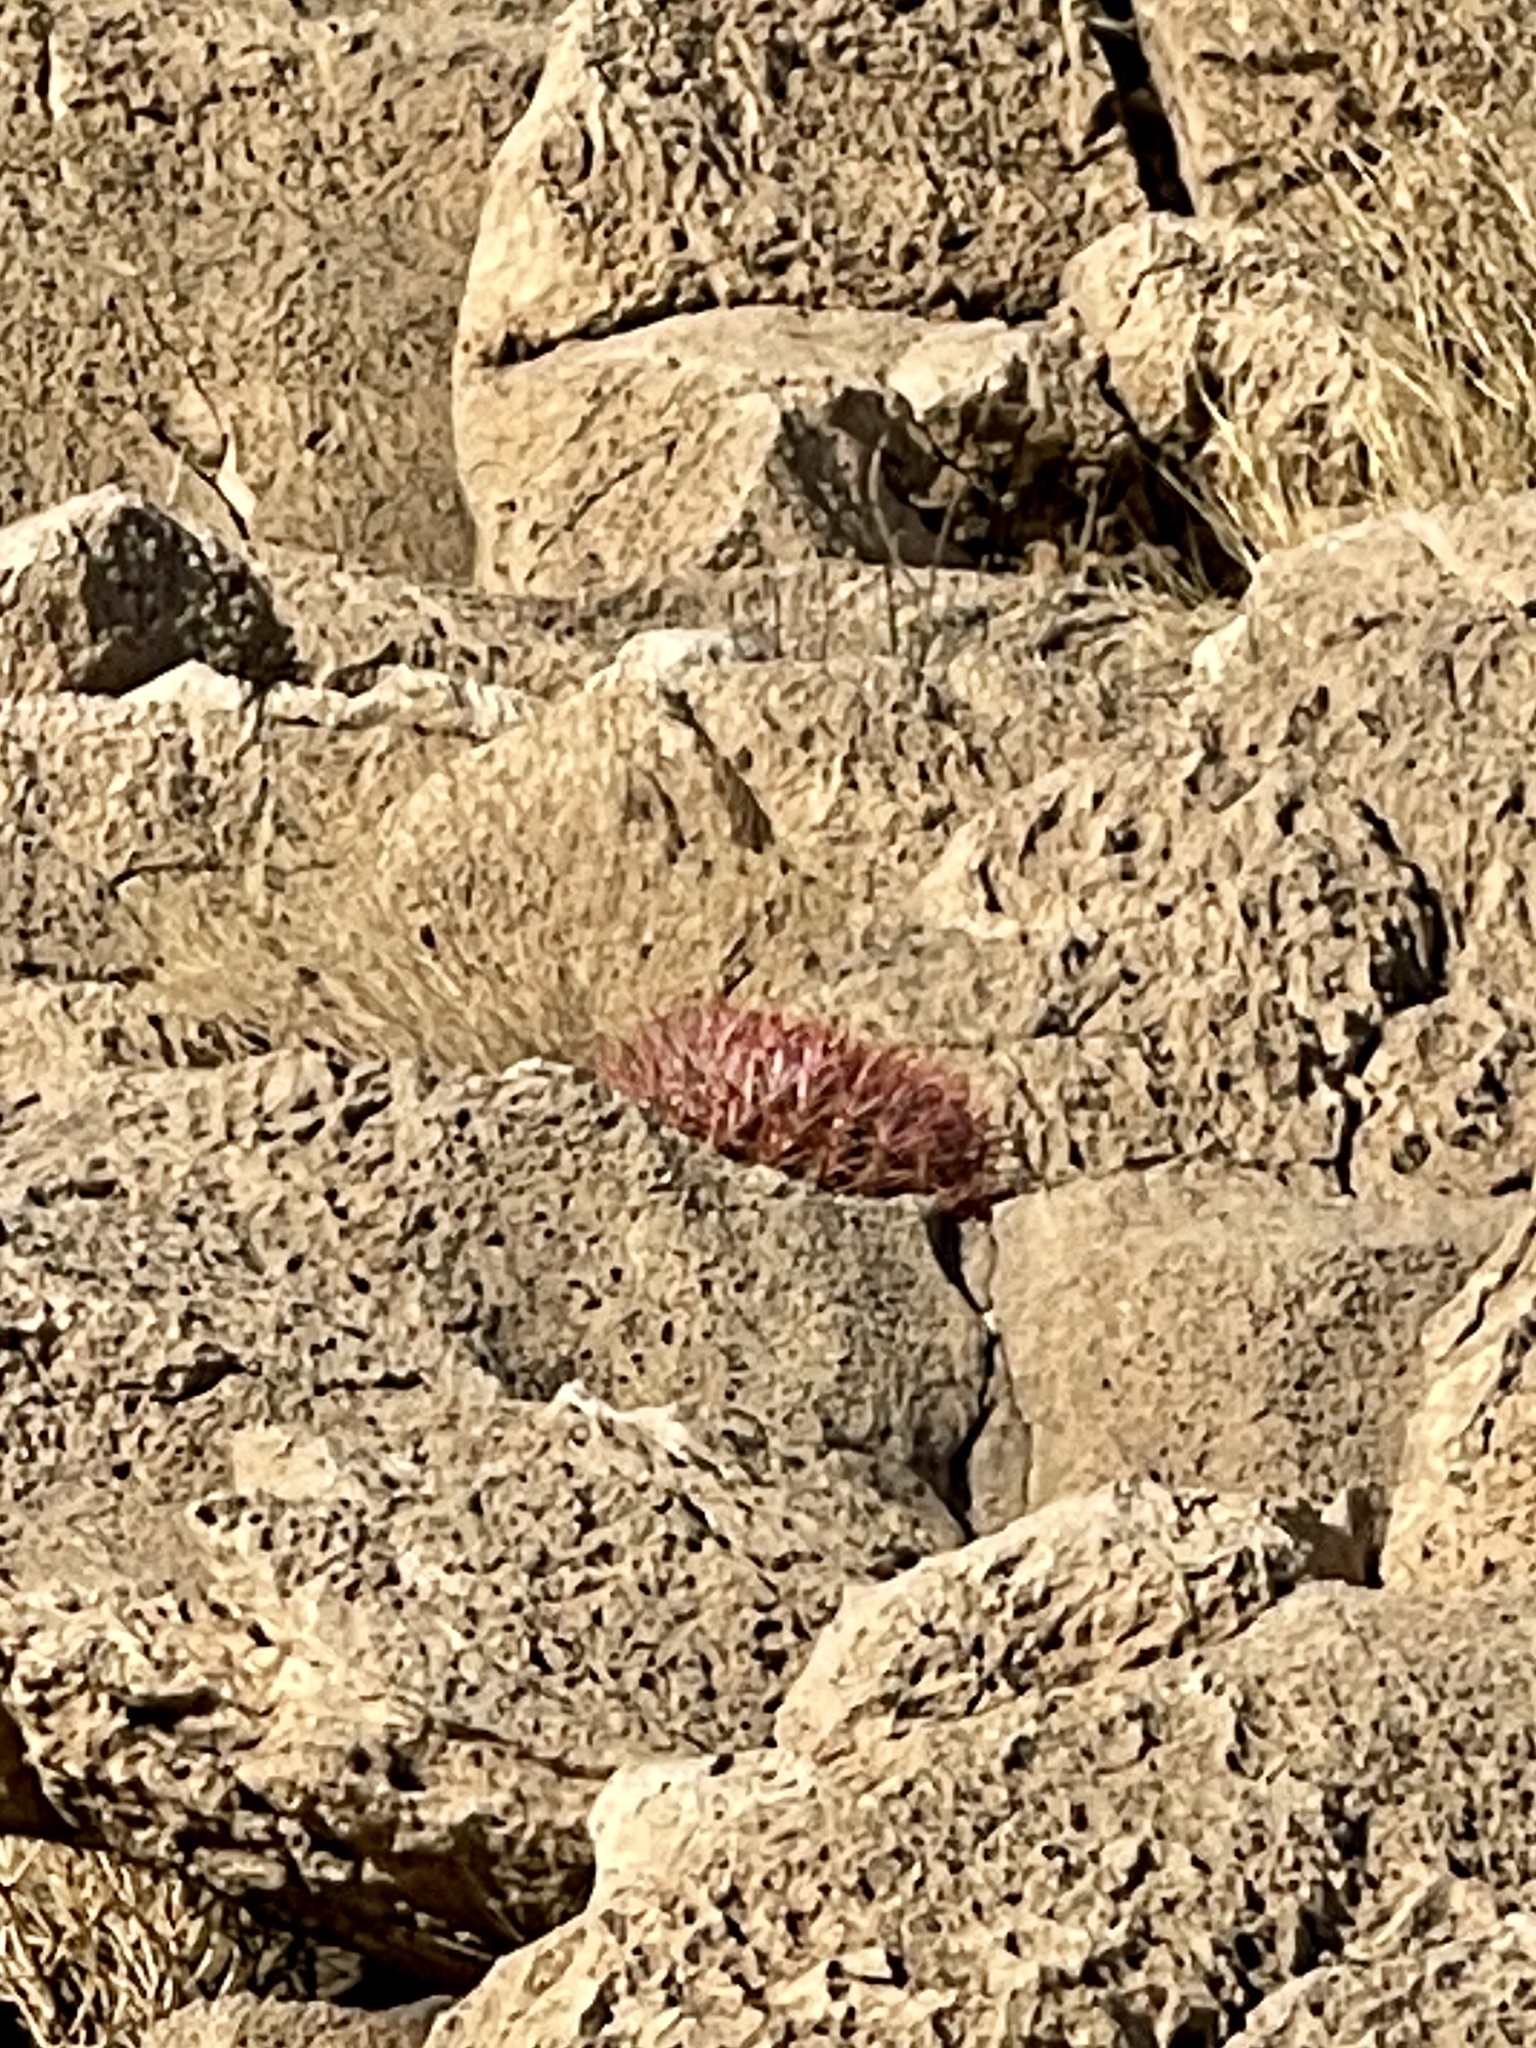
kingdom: Plantae
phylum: Tracheophyta
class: Magnoliopsida
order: Caryophyllales
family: Cactaceae
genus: Ferocactus
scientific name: Ferocactus cylindraceus
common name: California barrel cactus
